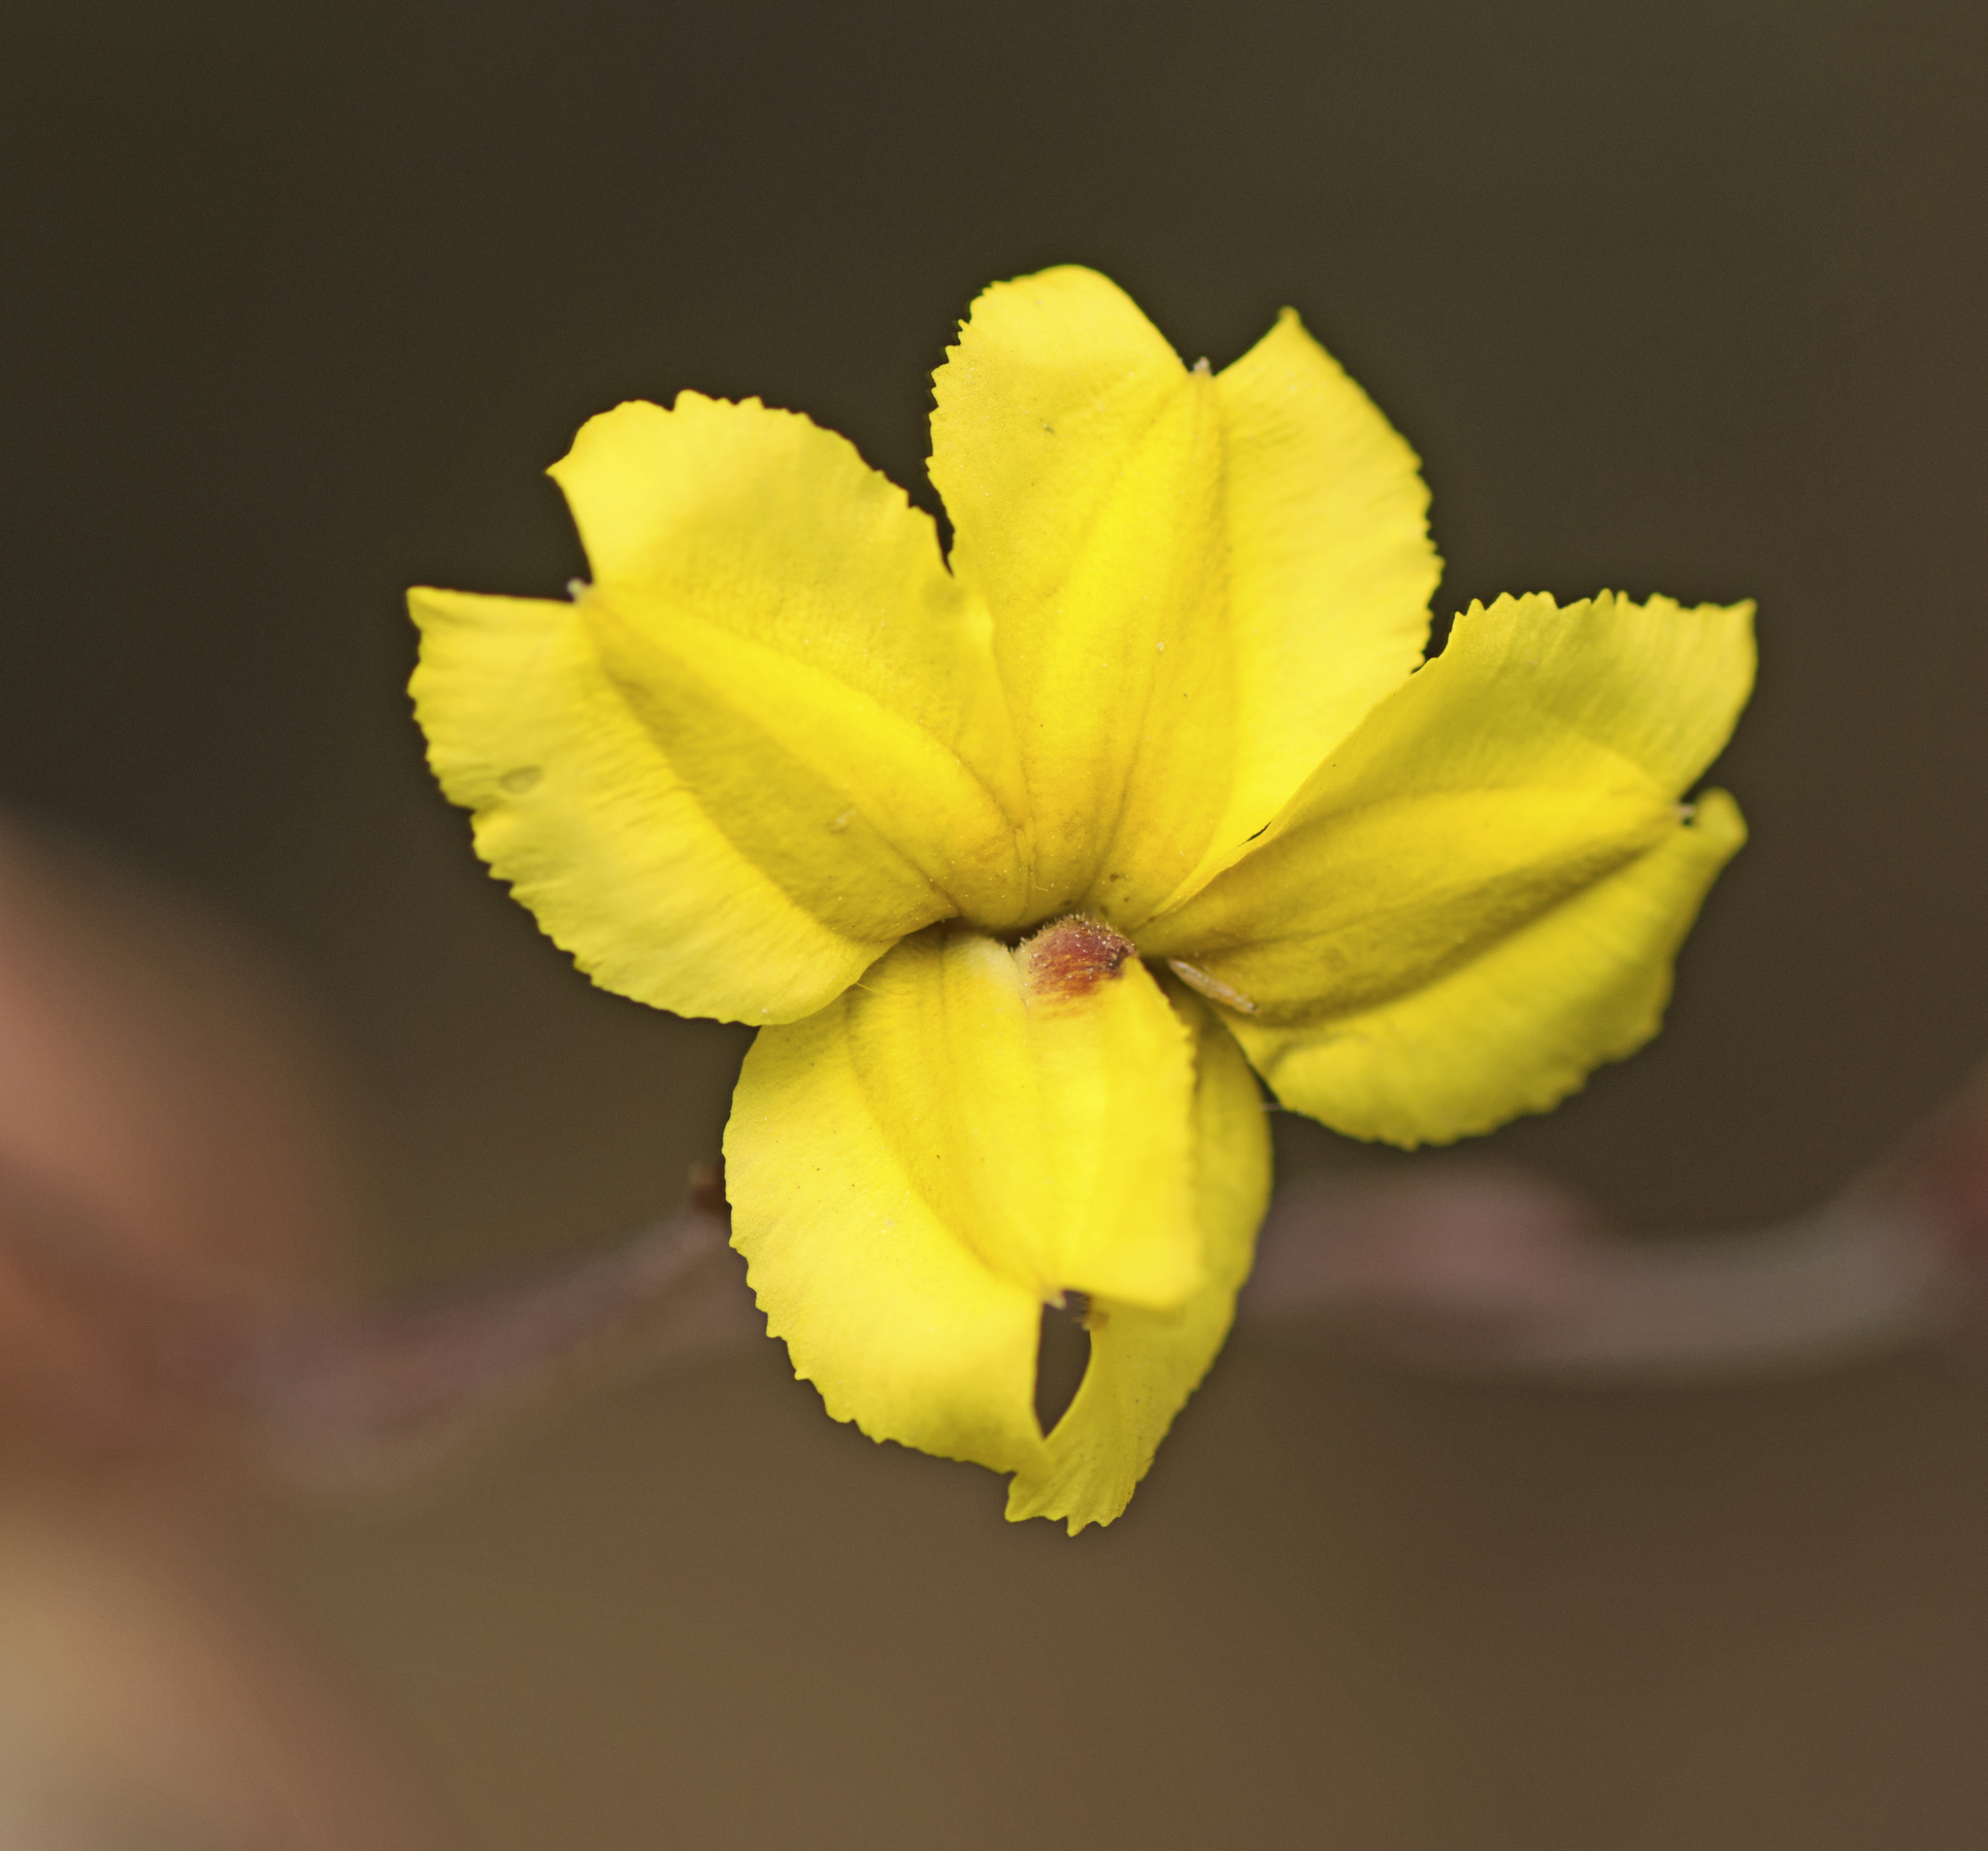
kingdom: Plantae
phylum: Tracheophyta
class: Magnoliopsida
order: Asterales
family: Goodeniaceae
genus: Goodenia
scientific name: Goodenia mystrophylla
